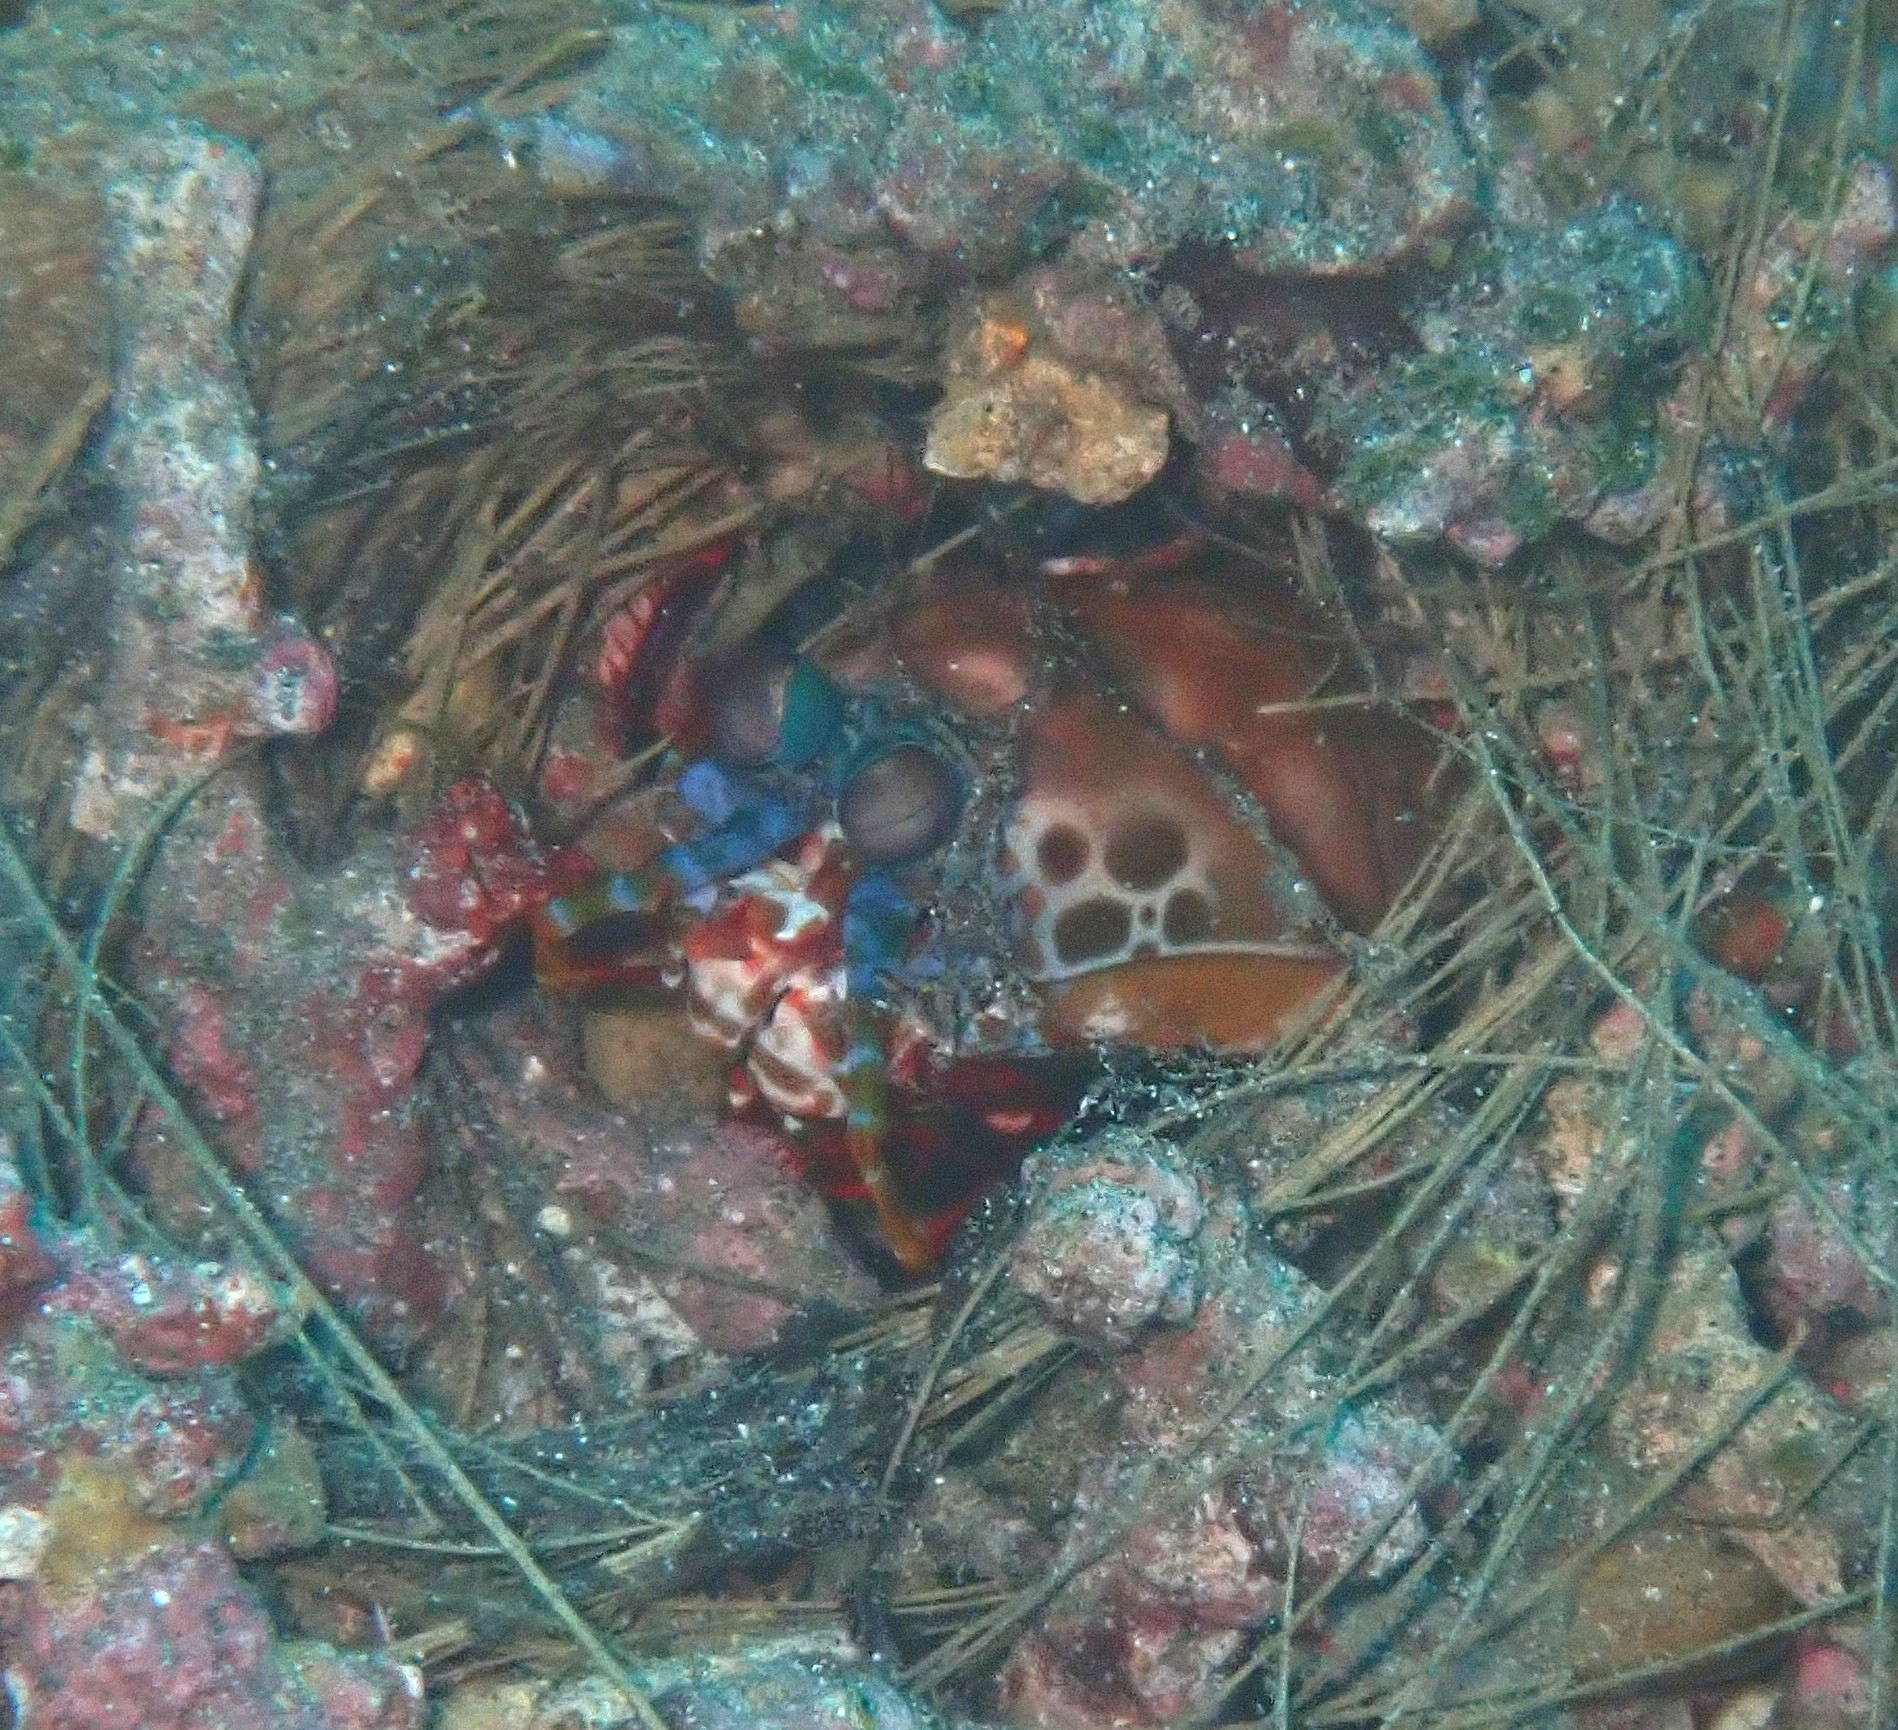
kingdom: Animalia
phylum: Arthropoda
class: Malacostraca
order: Stomatopoda
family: Odontodactylidae
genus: Odontodactylus
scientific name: Odontodactylus scyllarus
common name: Peacock mantis shrimp
